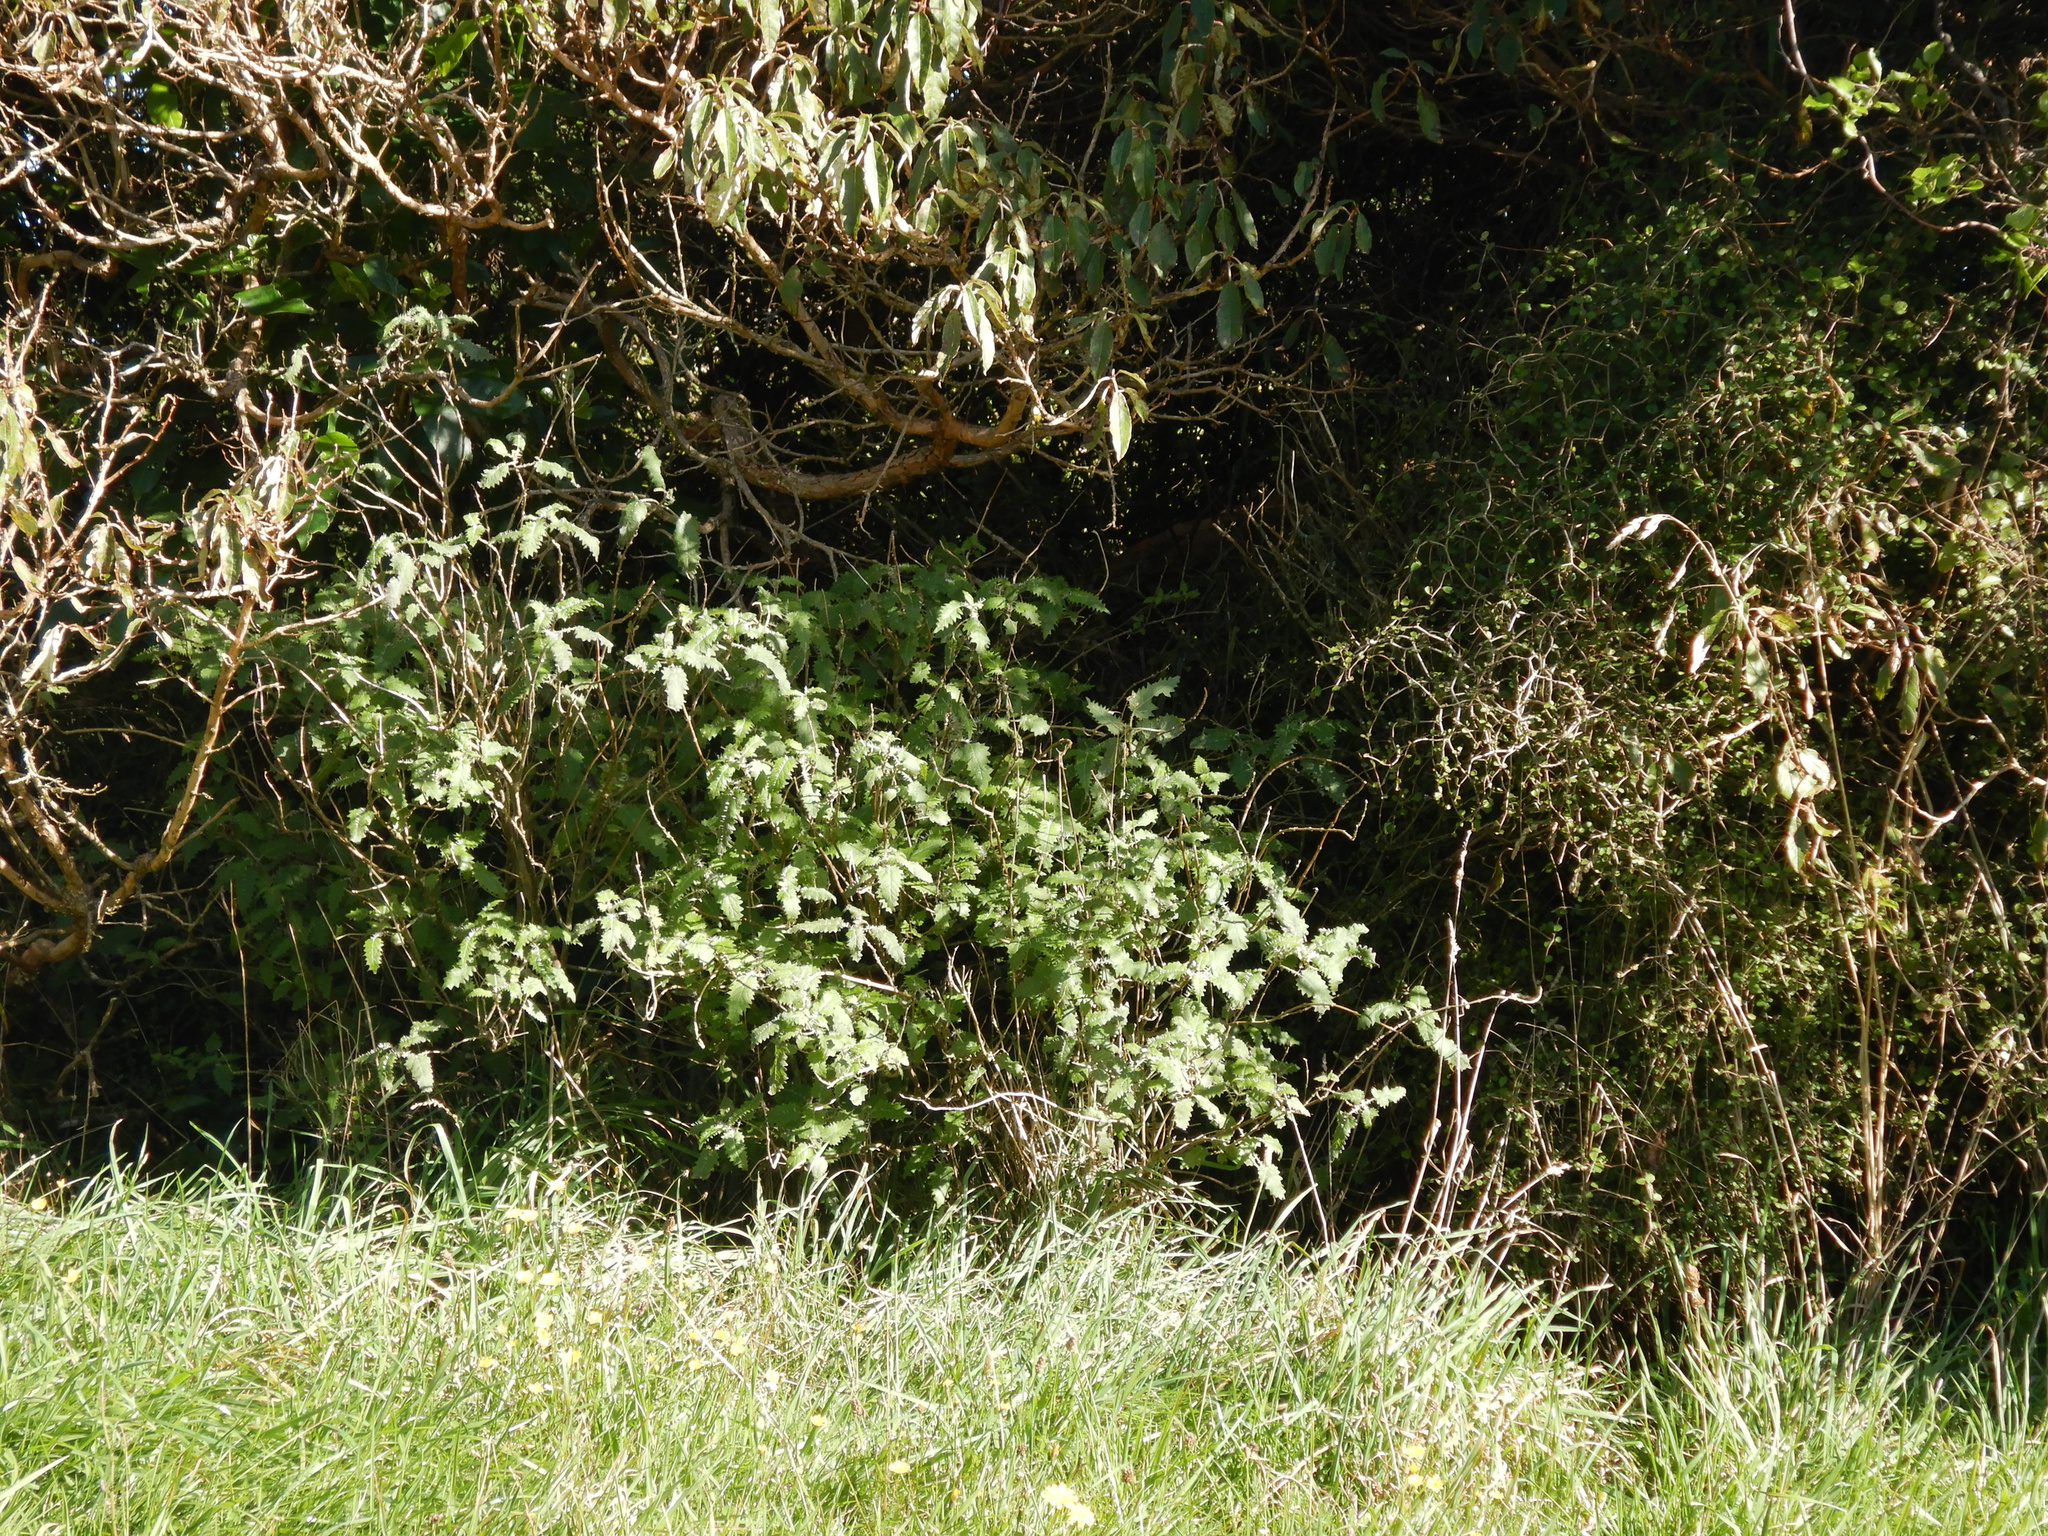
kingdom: Plantae
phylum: Tracheophyta
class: Magnoliopsida
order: Rosales
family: Urticaceae
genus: Urtica
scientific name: Urtica ferox
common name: Tree nettle
